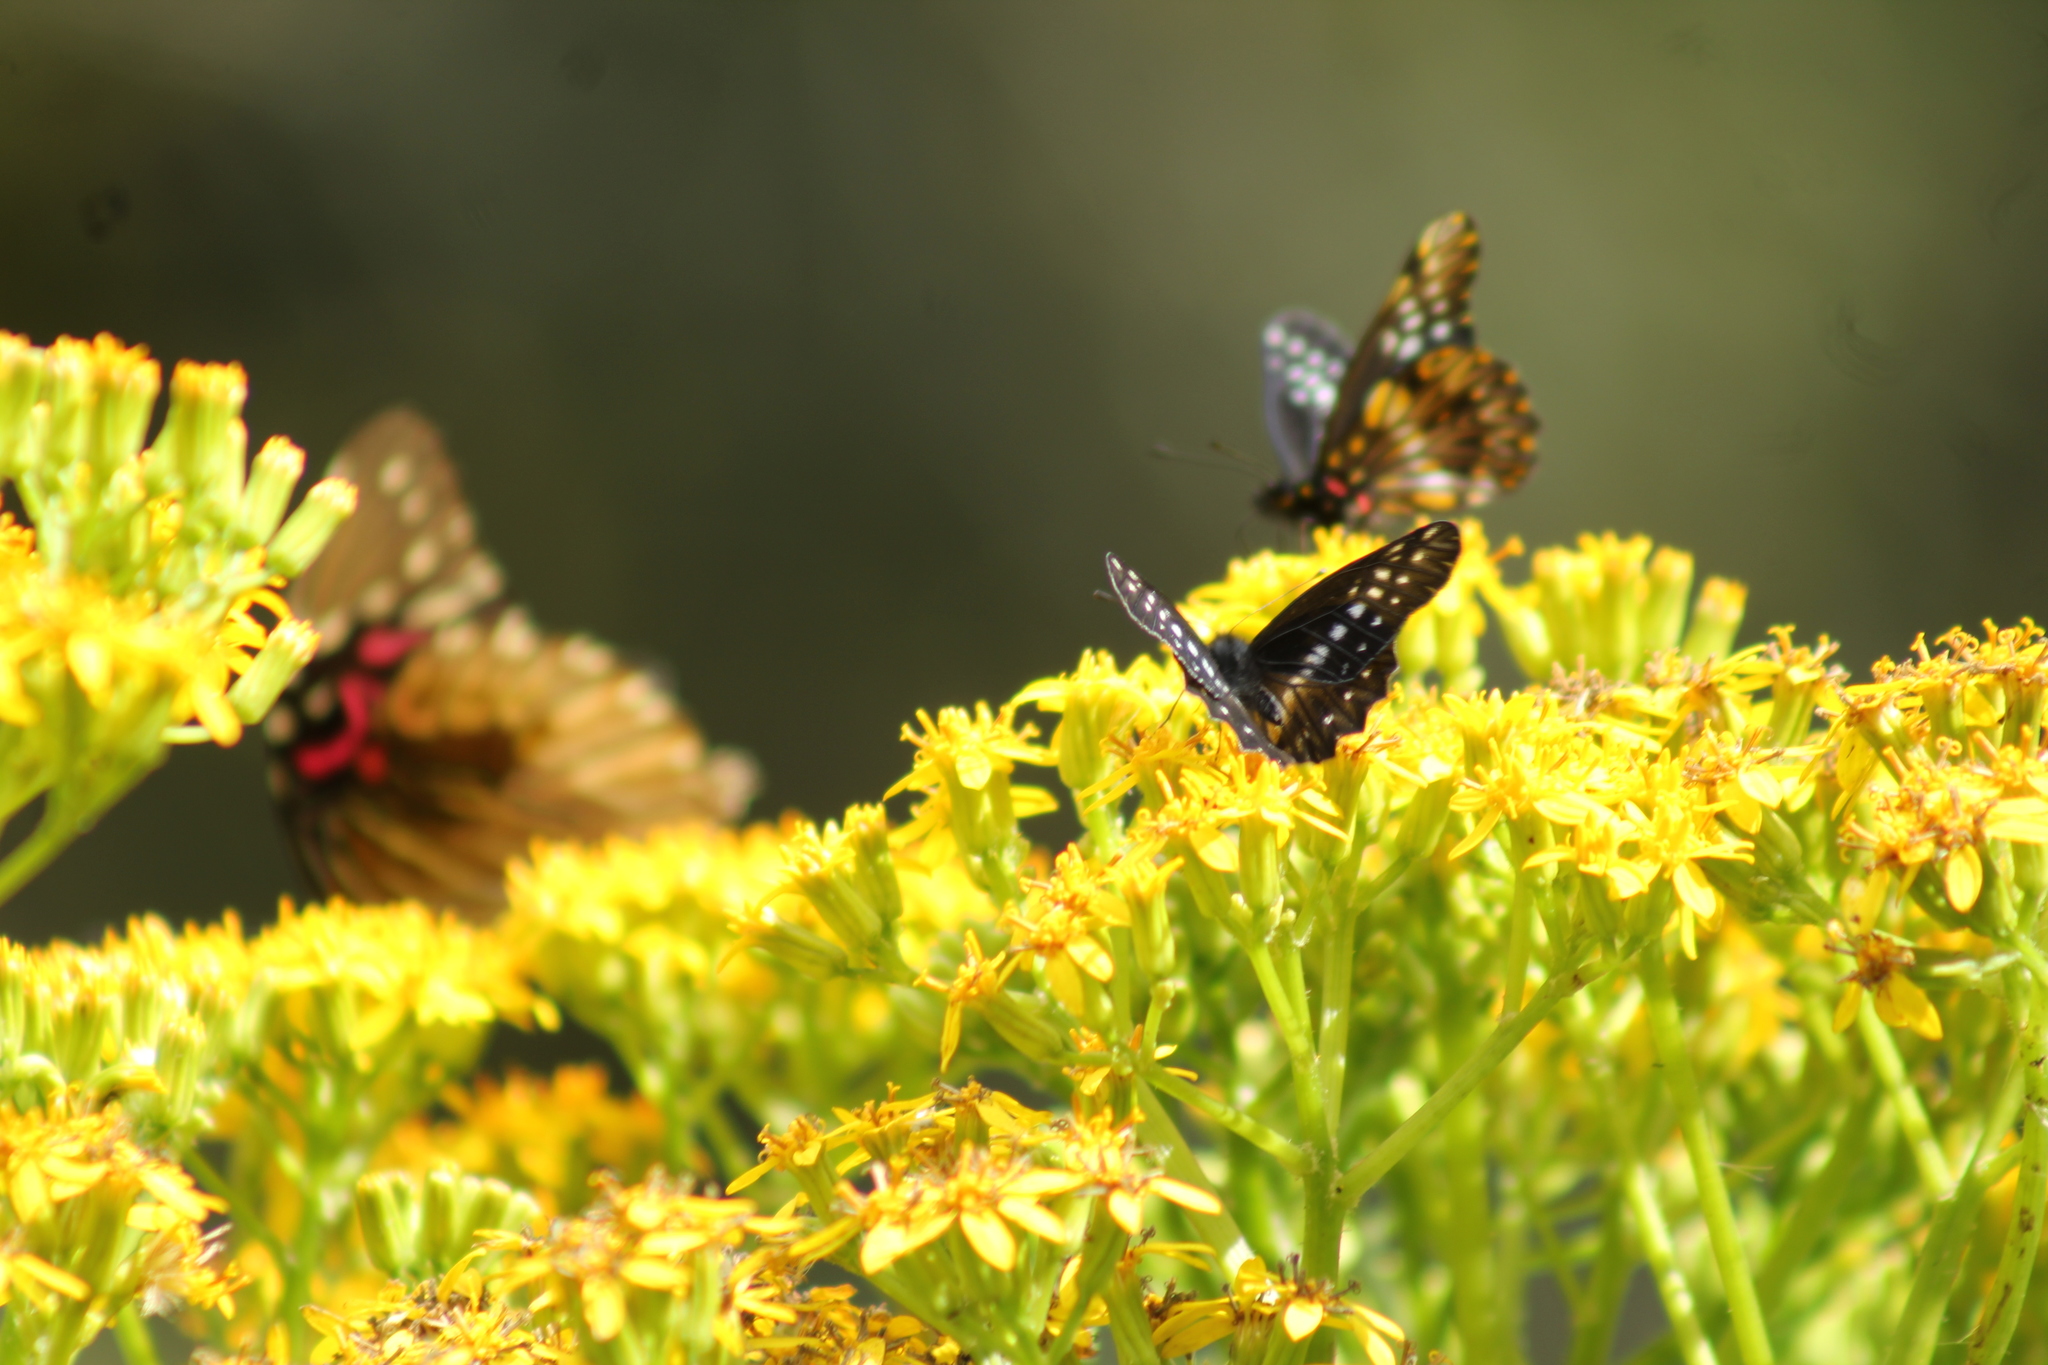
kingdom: Animalia
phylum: Arthropoda
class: Insecta
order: Lepidoptera
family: Pieridae
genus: Archonias
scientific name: Archonias flisa
